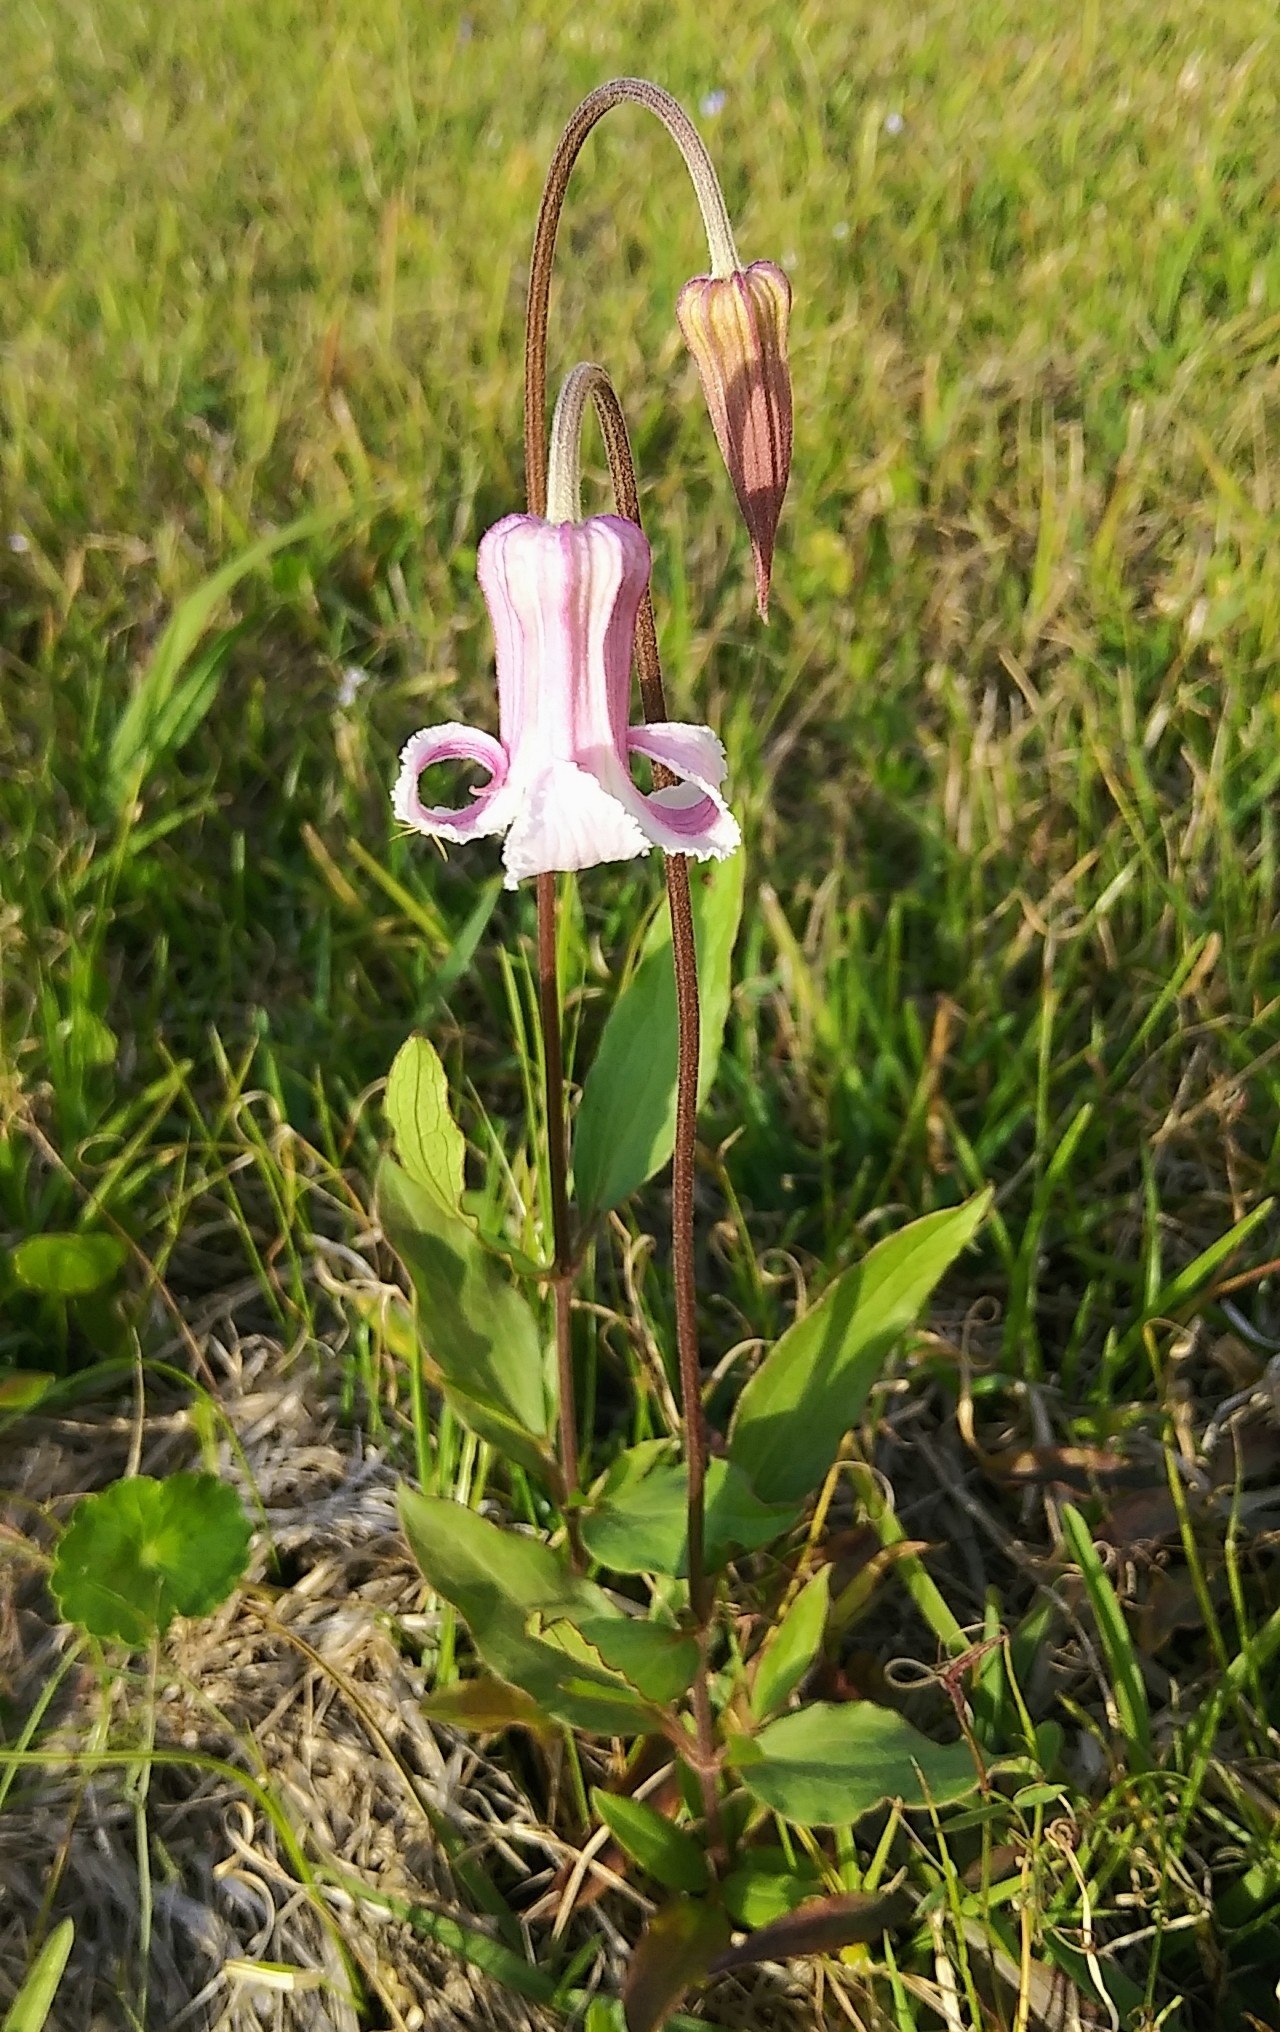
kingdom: Plantae
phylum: Tracheophyta
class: Magnoliopsida
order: Ranunculales
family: Ranunculaceae
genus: Clematis
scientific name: Clematis baldwinii
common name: Pine-hyacinth
